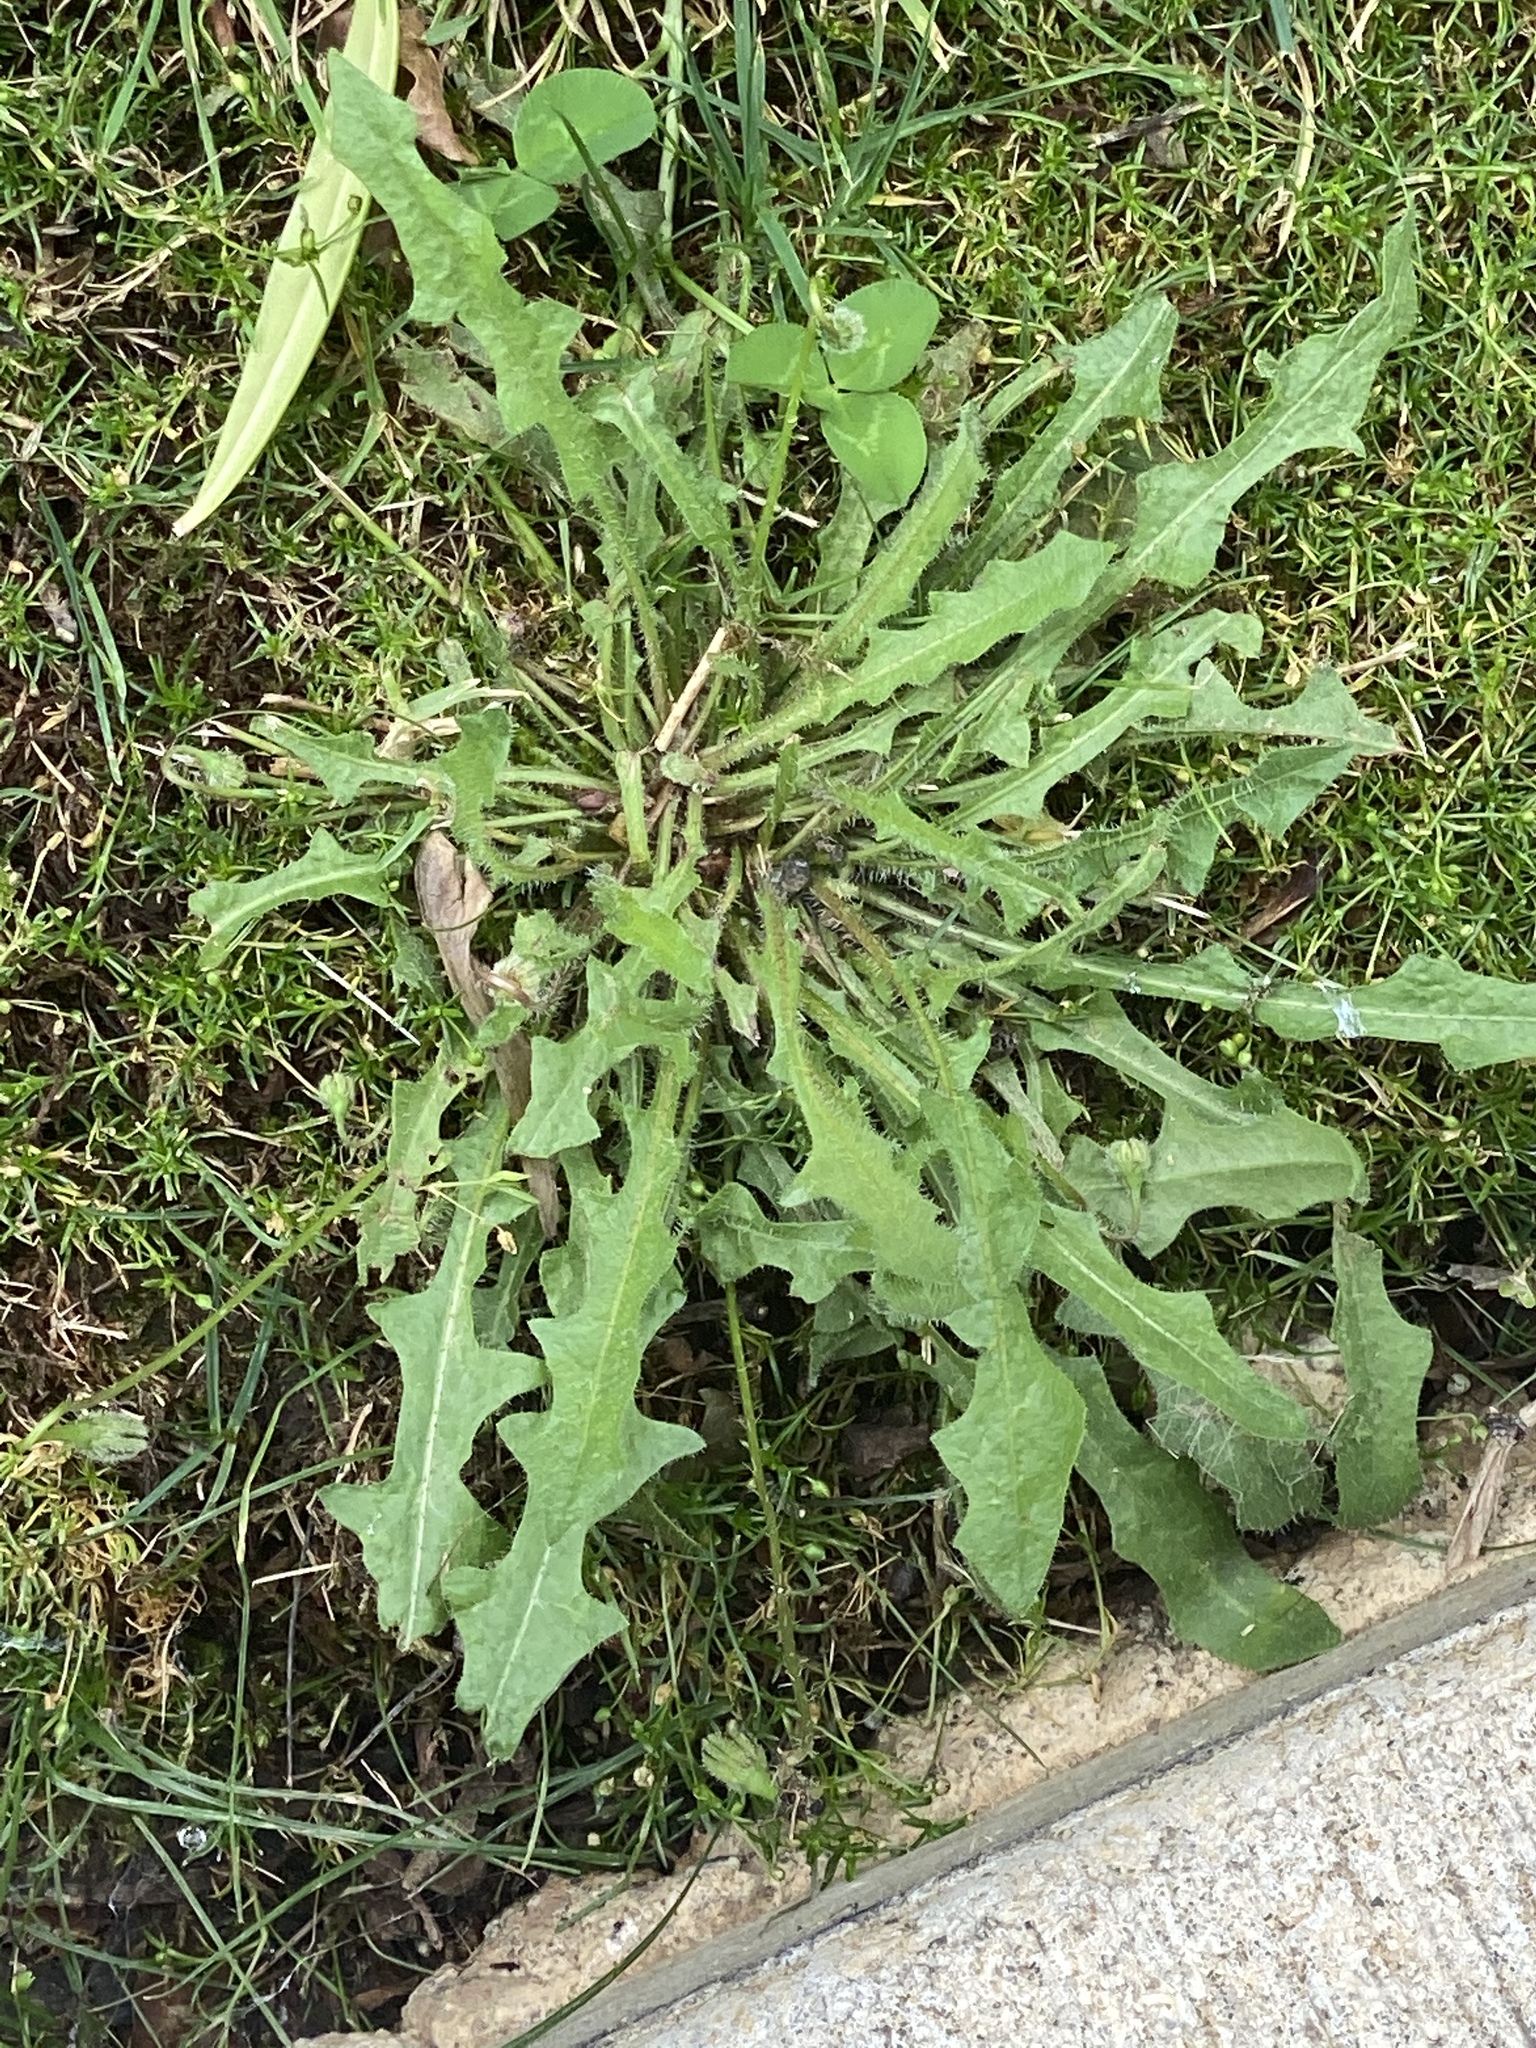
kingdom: Plantae
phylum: Tracheophyta
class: Magnoliopsida
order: Asterales
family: Asteraceae
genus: Hypochaeris
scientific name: Hypochaeris radicata
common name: Flatweed
